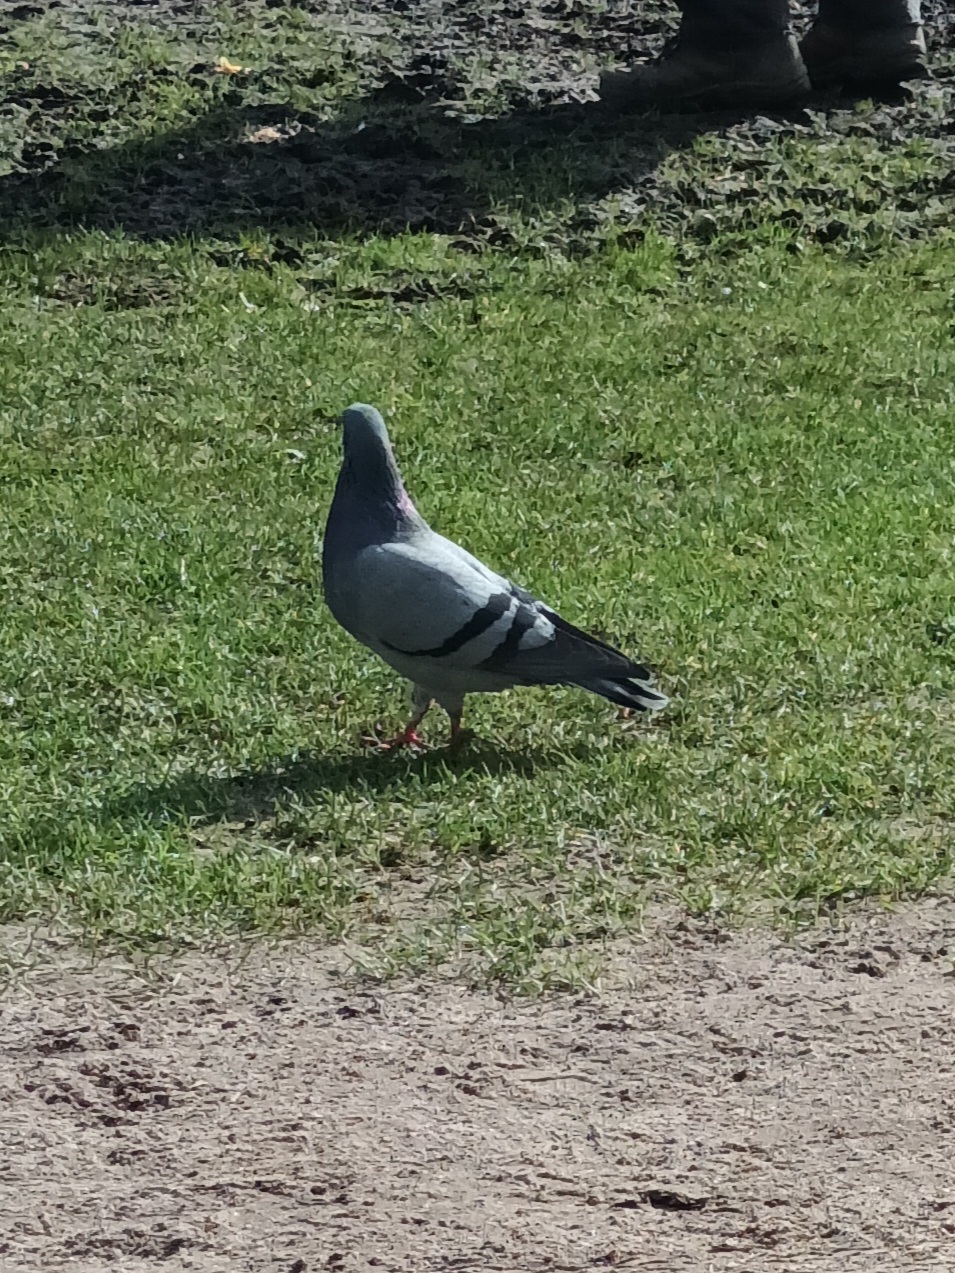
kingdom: Animalia
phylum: Chordata
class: Aves
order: Columbiformes
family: Columbidae
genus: Columba
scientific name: Columba livia
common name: Rock pigeon
